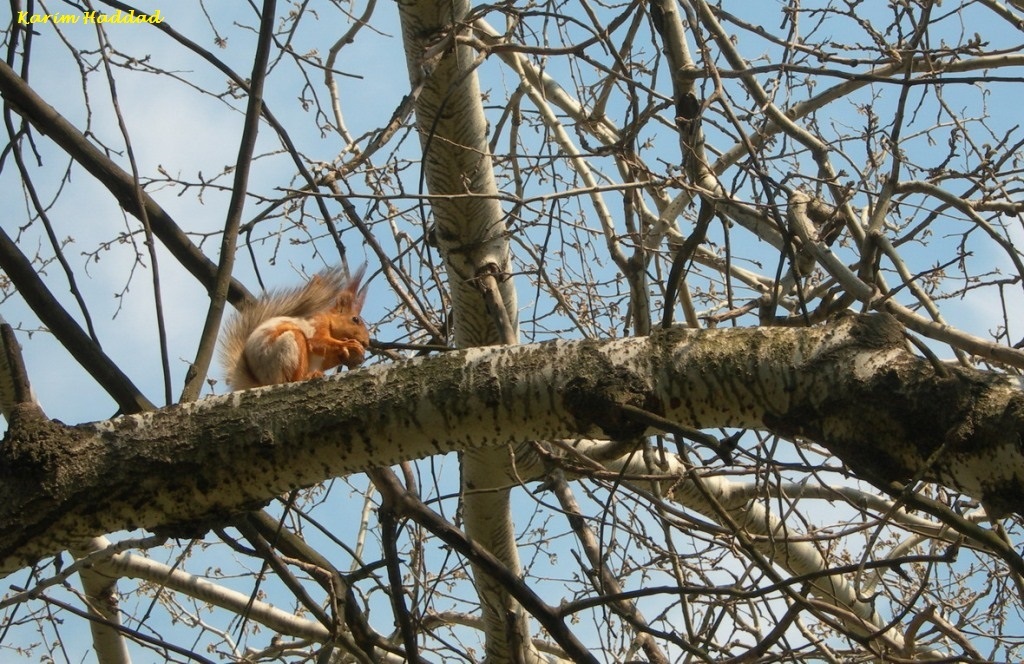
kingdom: Animalia
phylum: Chordata
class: Mammalia
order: Rodentia
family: Sciuridae
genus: Sciurus
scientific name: Sciurus vulgaris
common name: Eurasian red squirrel
